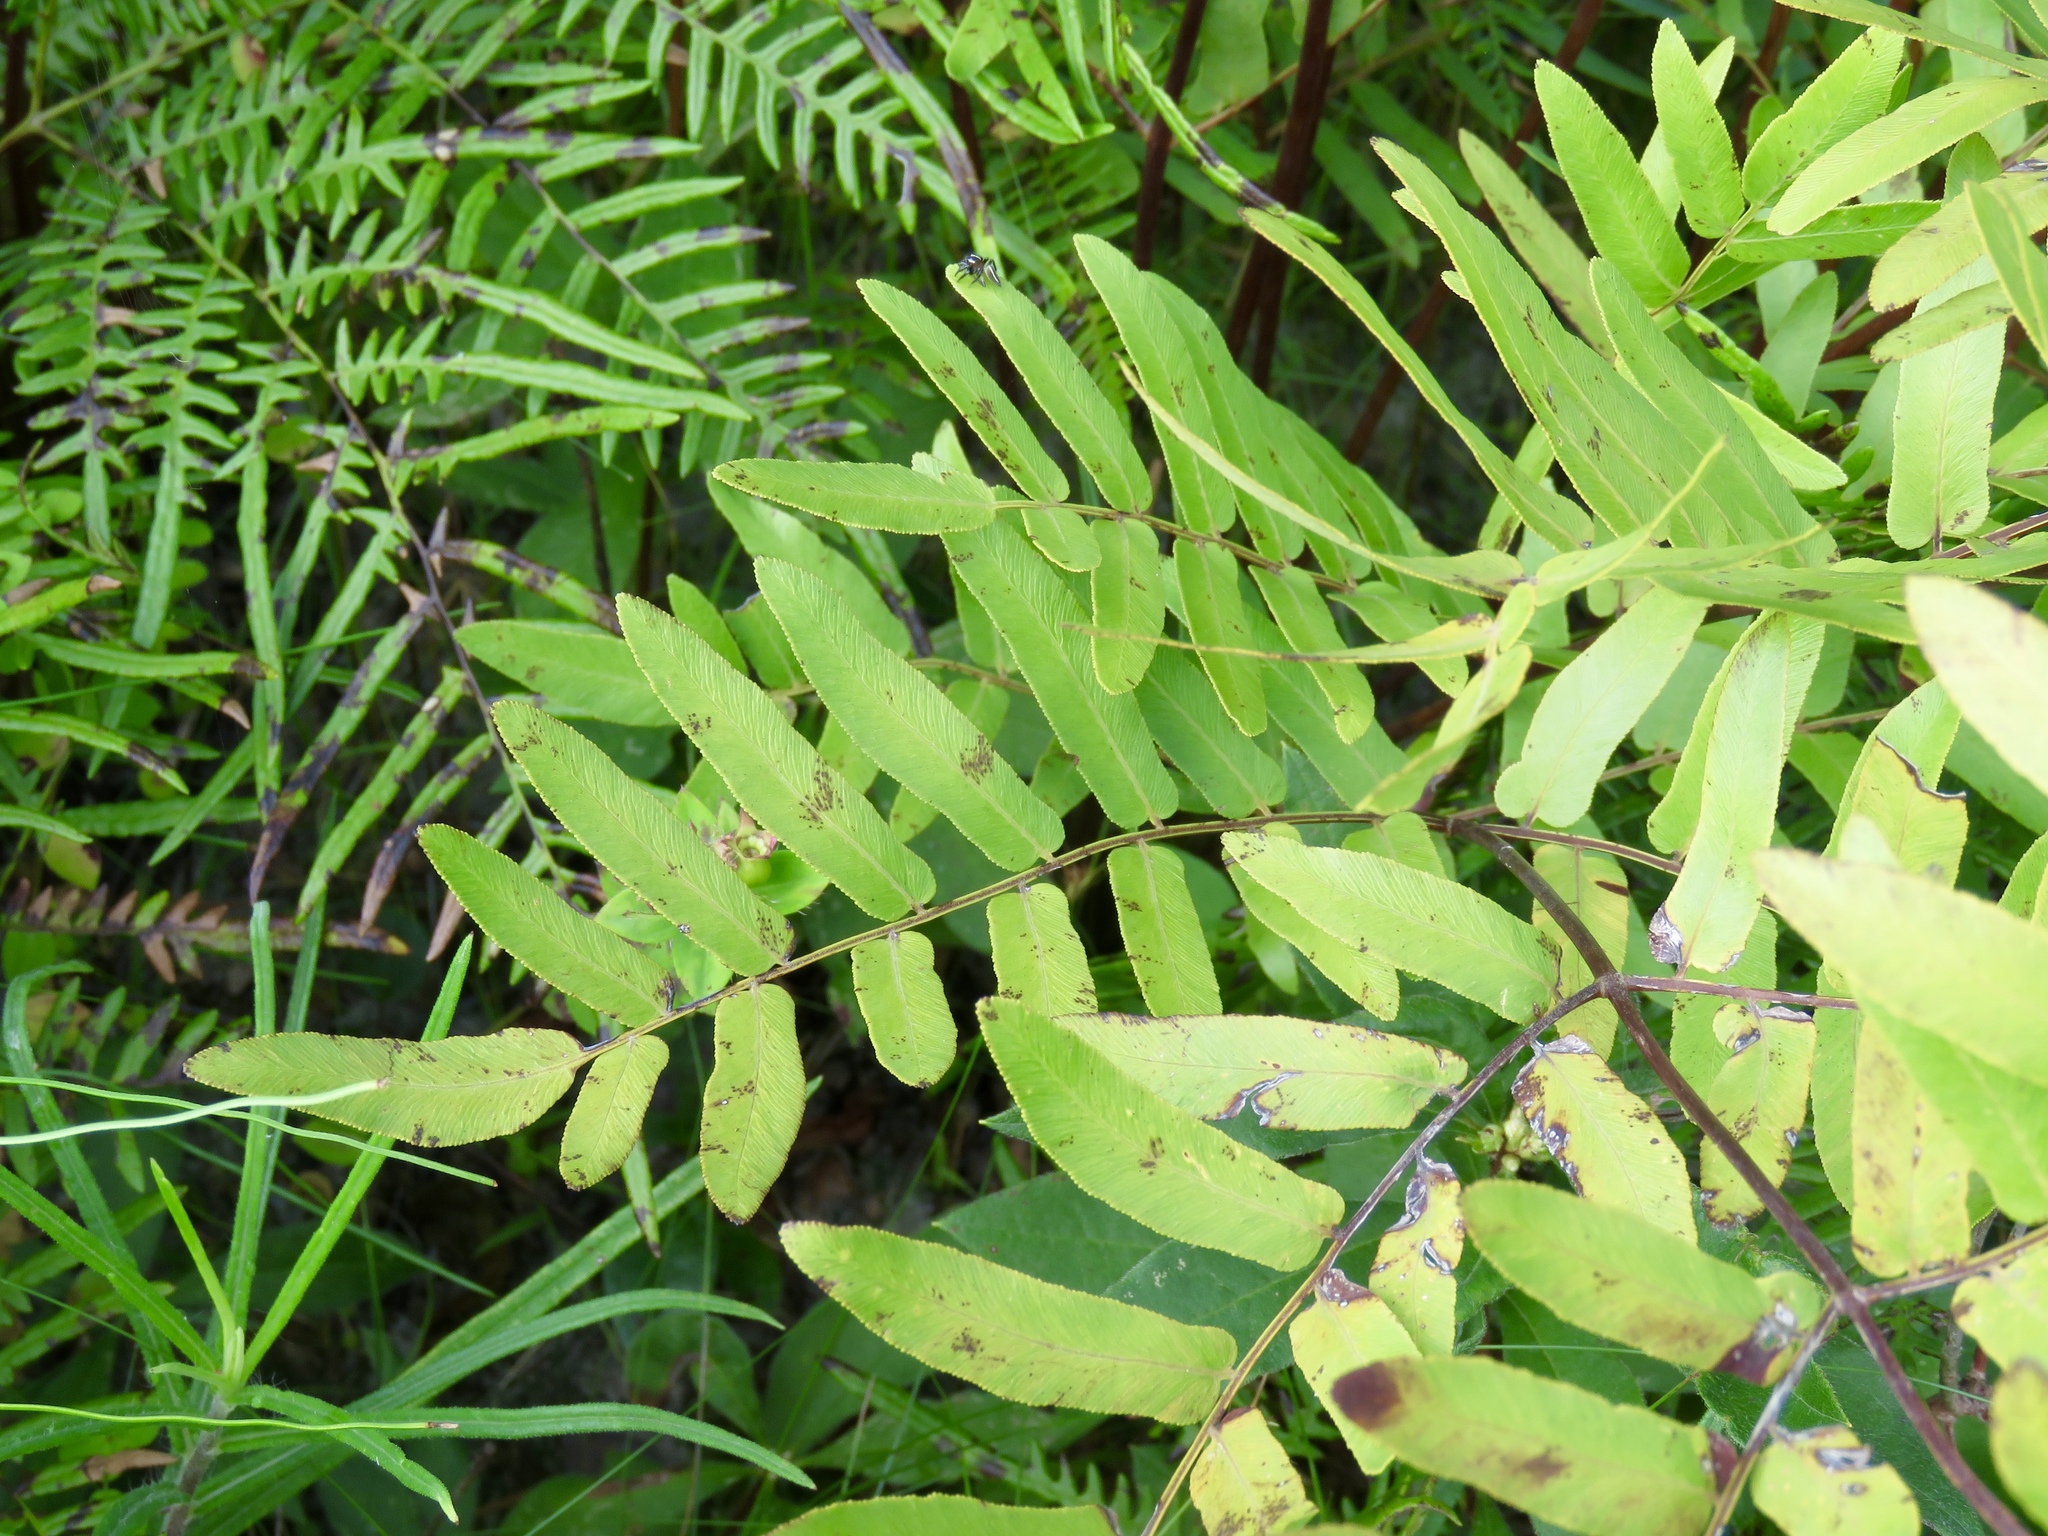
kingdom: Plantae
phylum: Tracheophyta
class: Polypodiopsida
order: Osmundales
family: Osmundaceae
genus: Osmunda
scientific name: Osmunda spectabilis
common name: American royal fern
